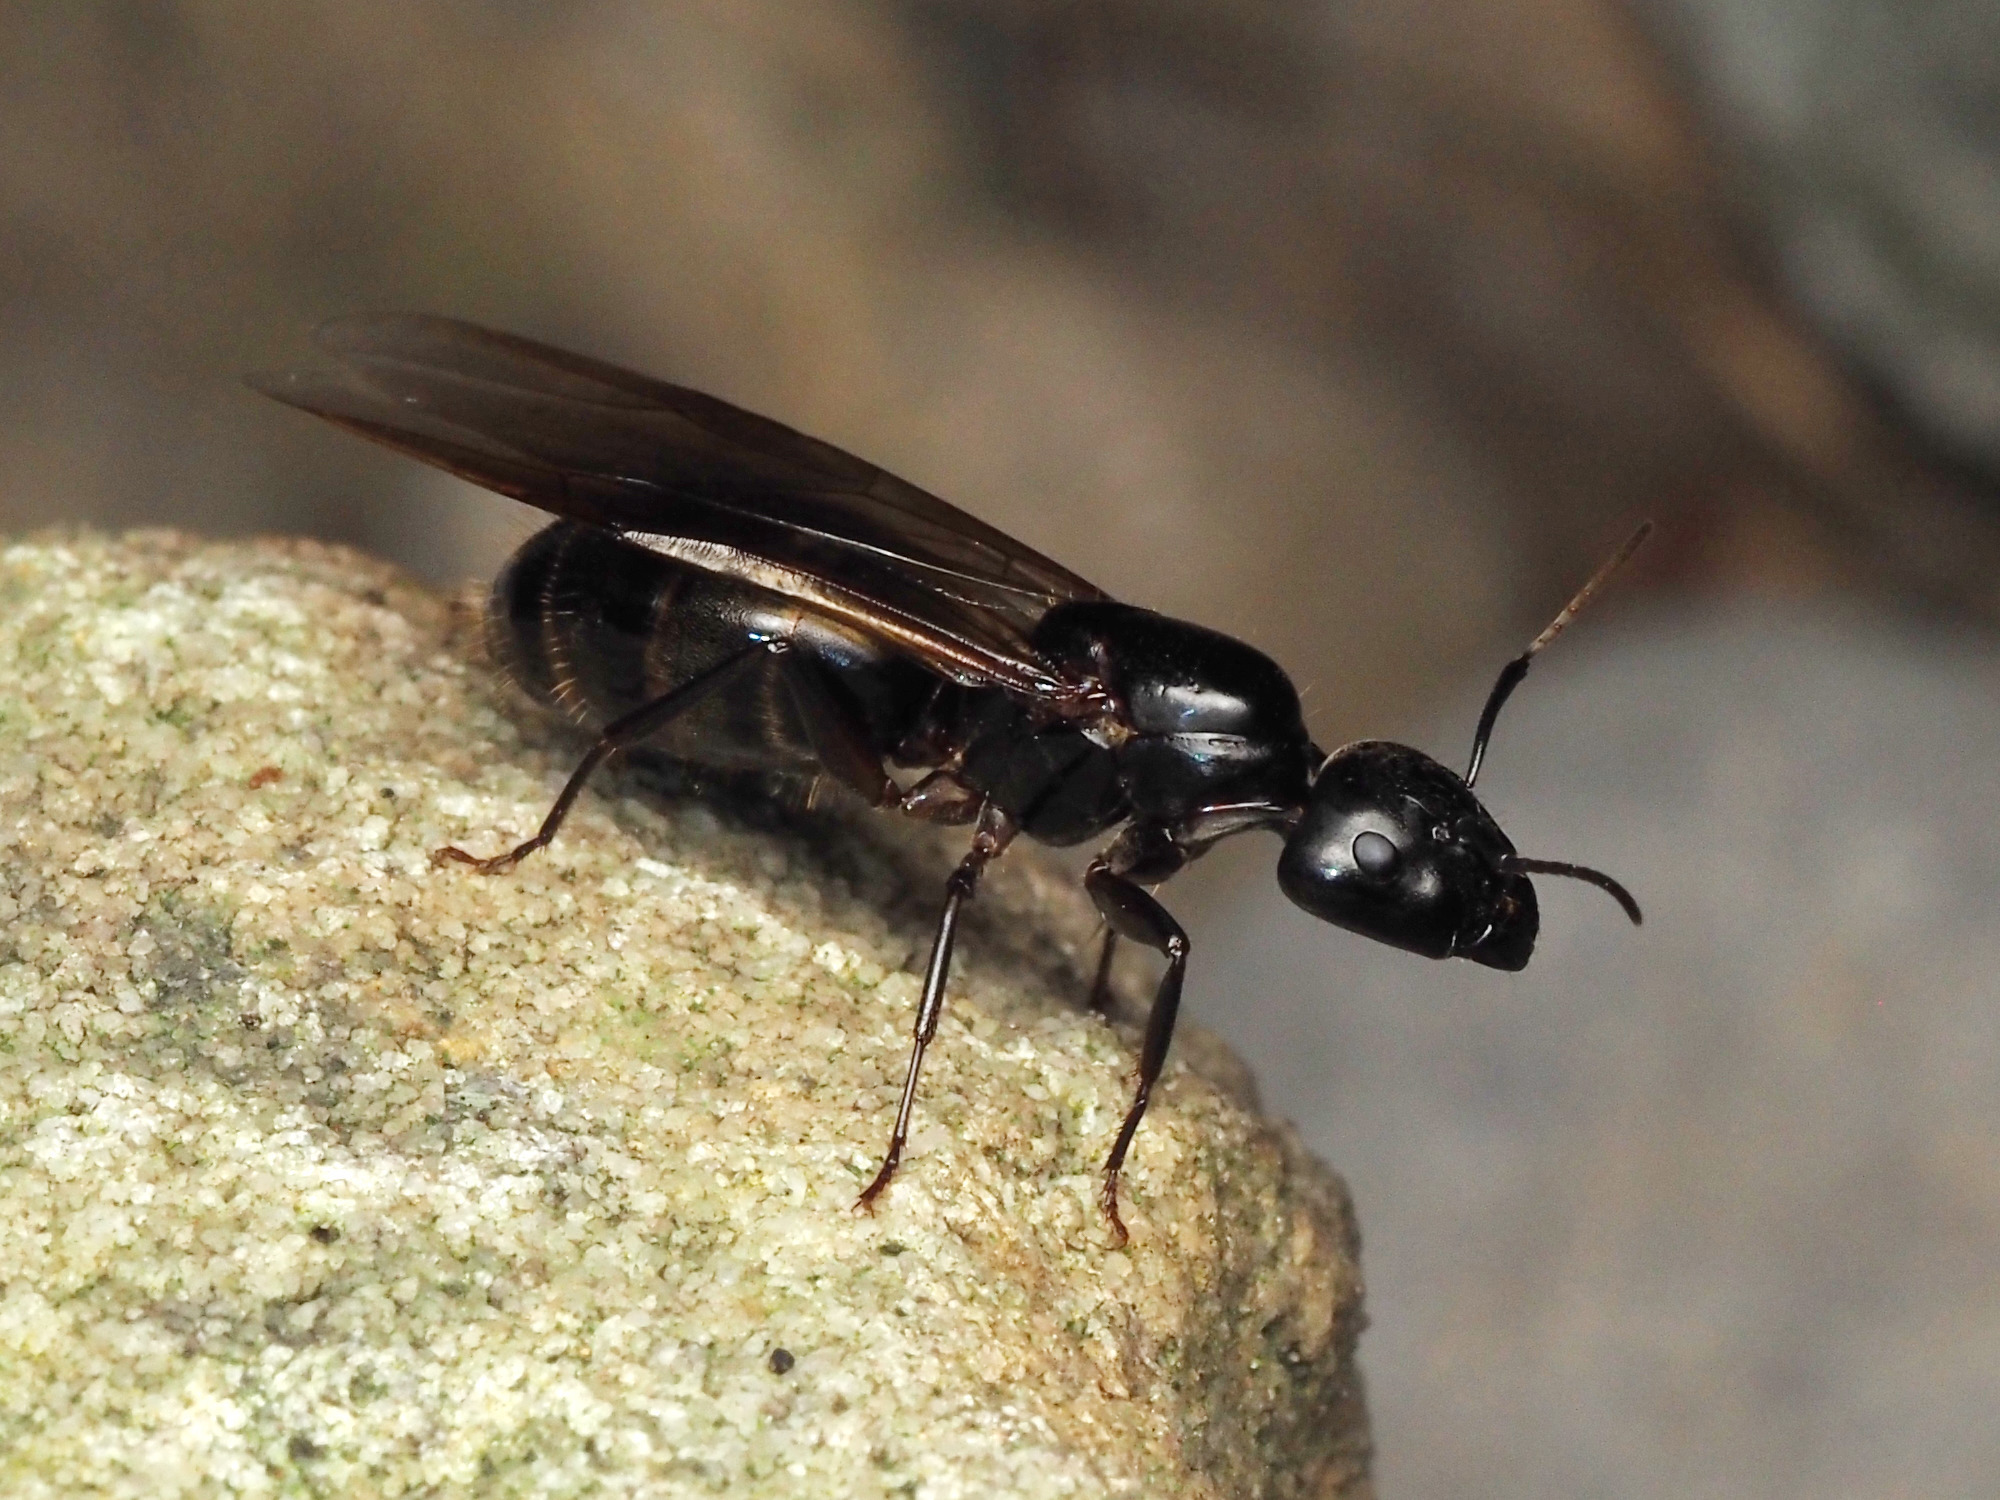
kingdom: Animalia
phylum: Arthropoda
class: Insecta
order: Hymenoptera
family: Formicidae
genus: Camponotus
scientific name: Camponotus pennsylvanicus
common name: Black carpenter ant
